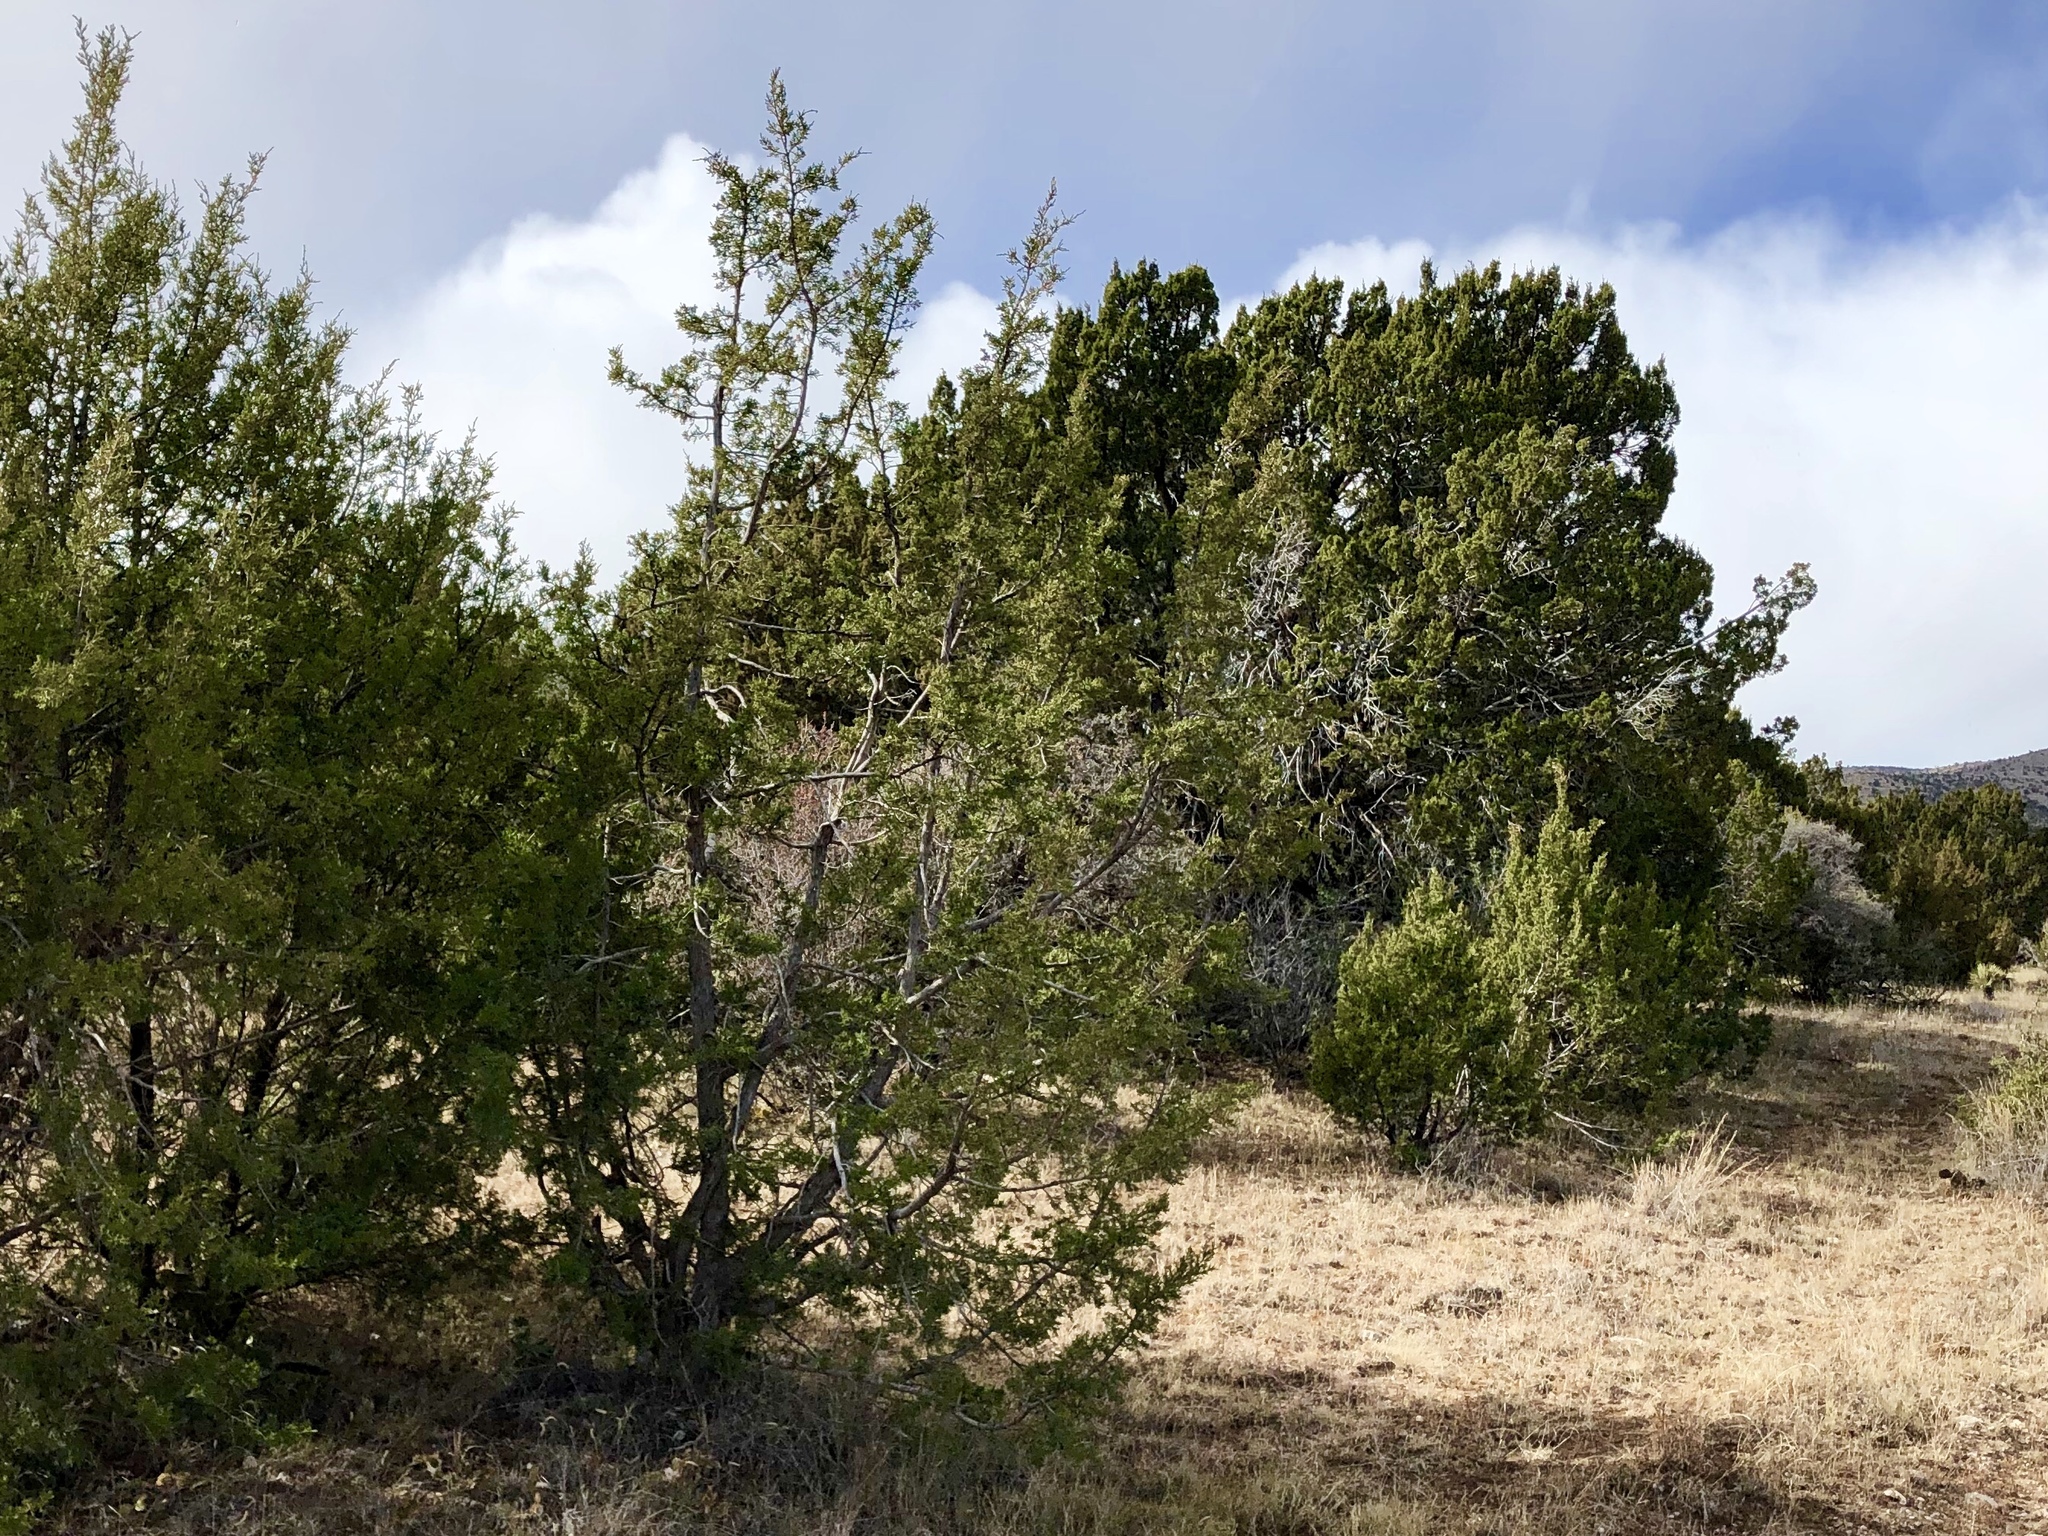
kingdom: Plantae
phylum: Tracheophyta
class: Pinopsida
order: Pinales
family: Cupressaceae
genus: Juniperus
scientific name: Juniperus monosperma
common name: One-seed juniper
